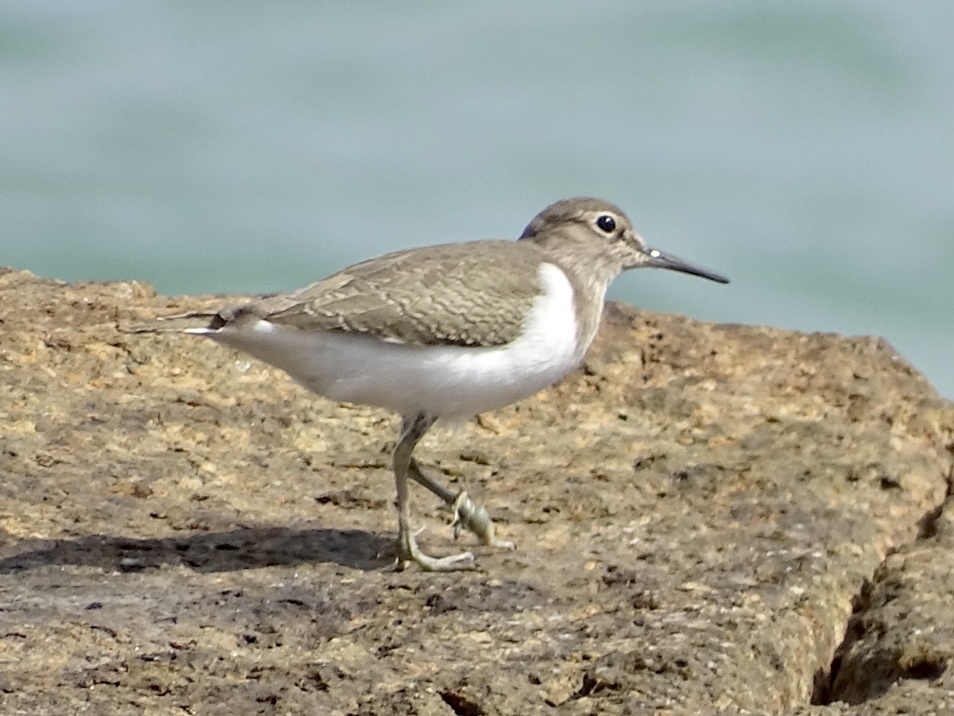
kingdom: Animalia
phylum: Chordata
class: Aves
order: Charadriiformes
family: Scolopacidae
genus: Actitis
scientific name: Actitis hypoleucos
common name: Common sandpiper
